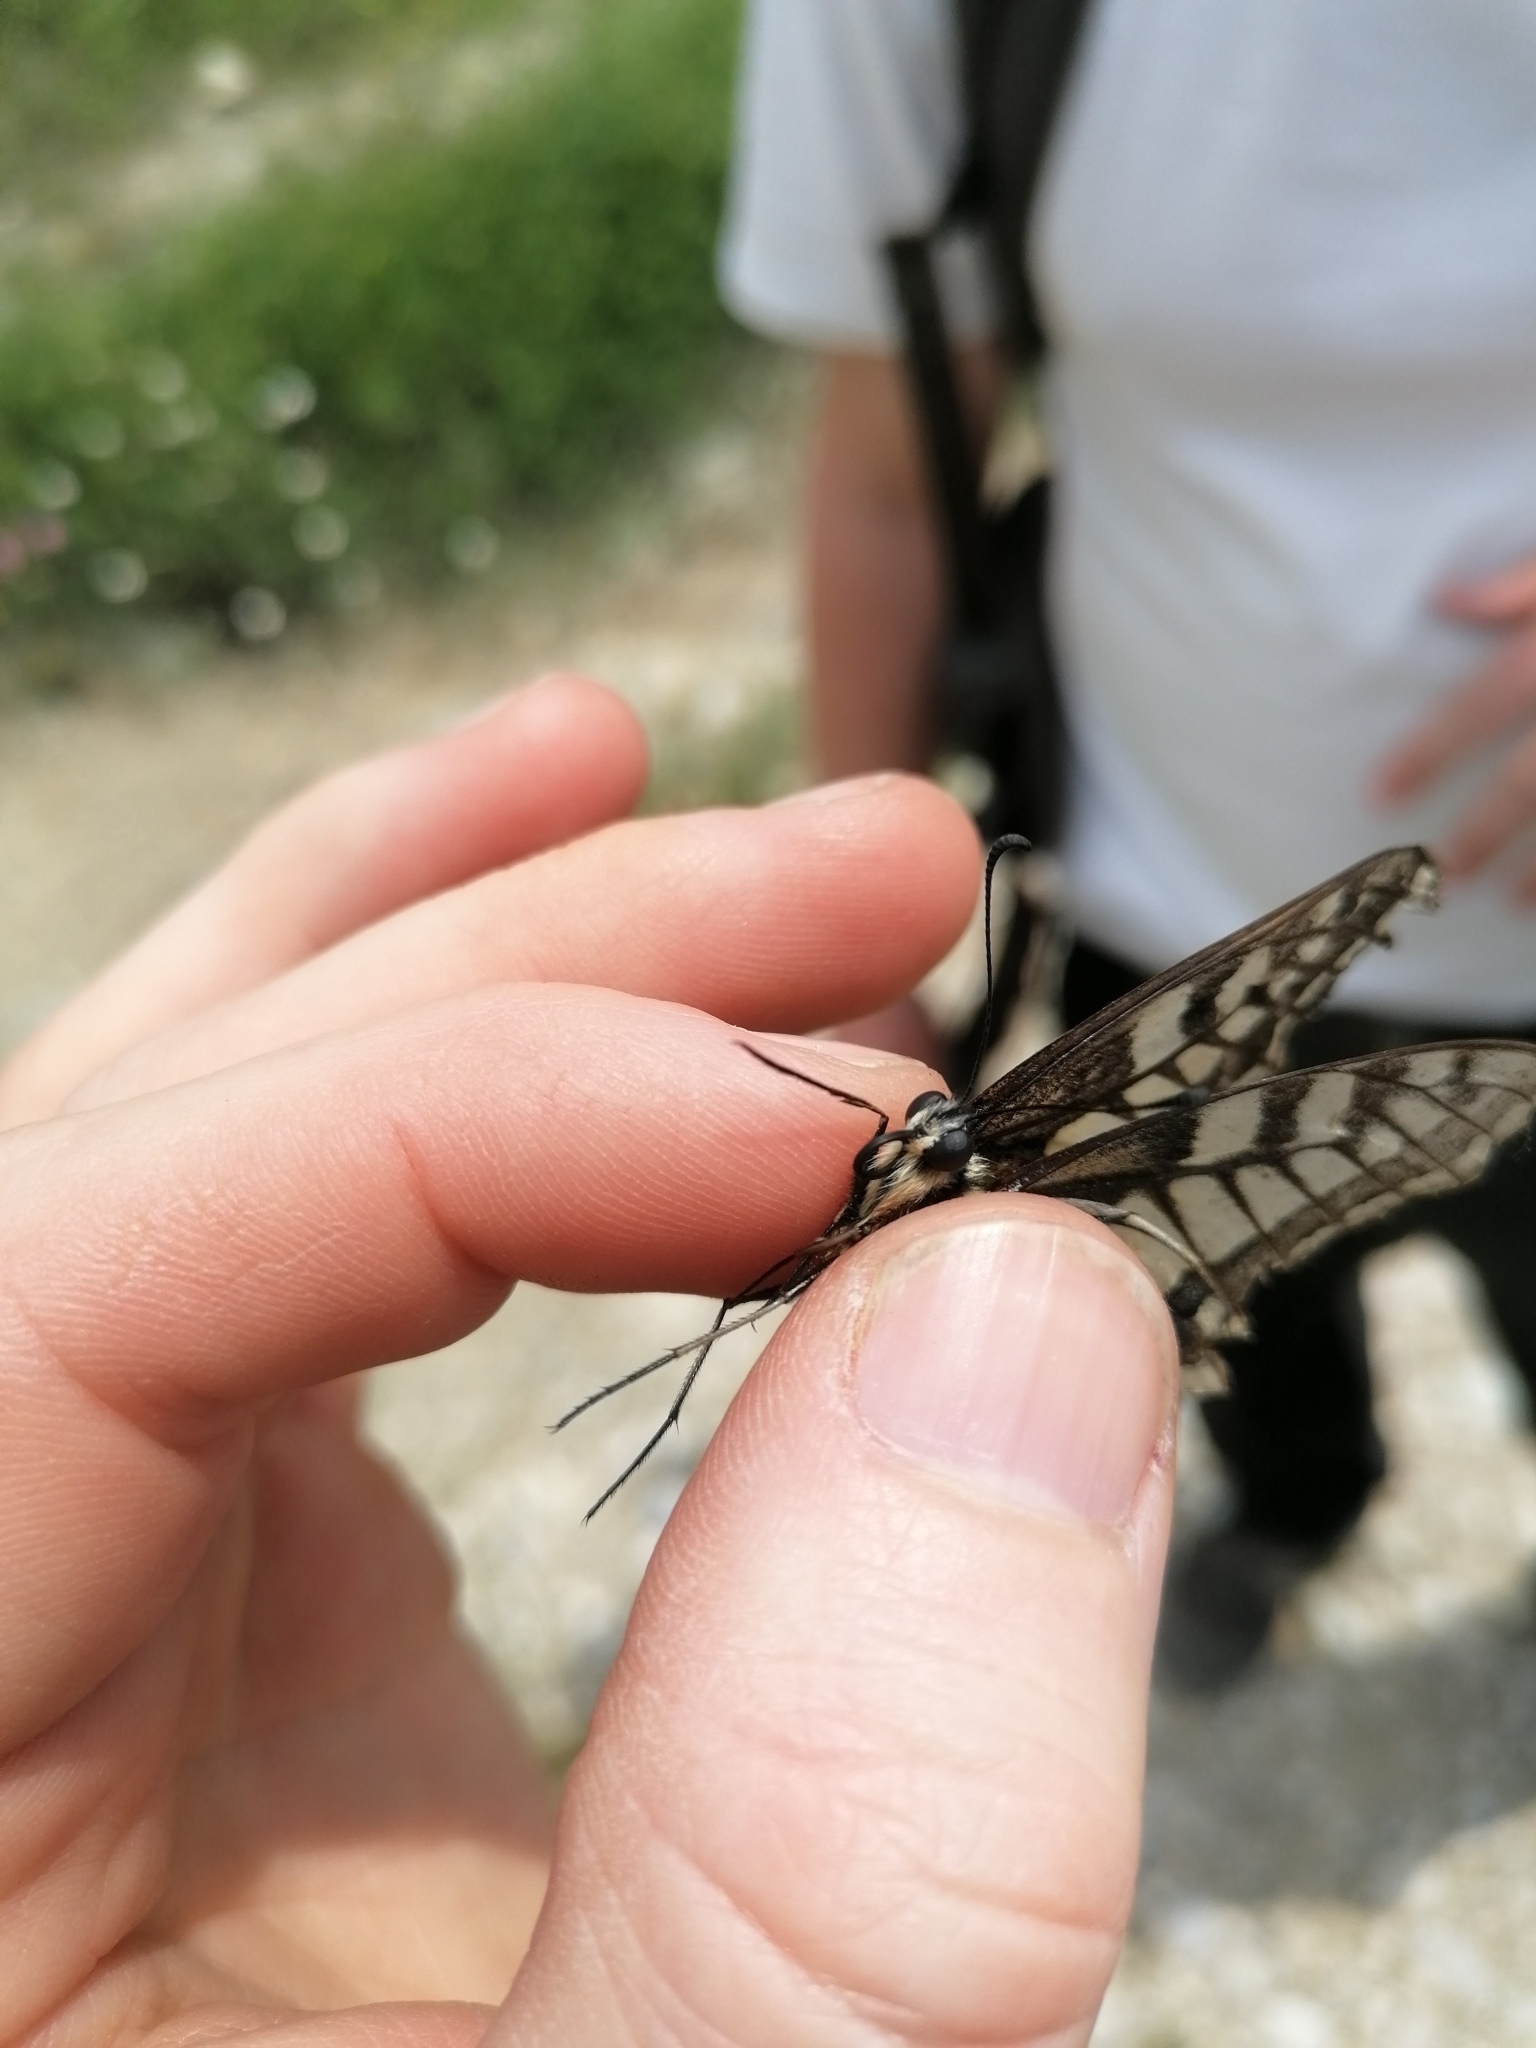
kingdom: Animalia
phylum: Arthropoda
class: Insecta
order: Lepidoptera
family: Papilionidae
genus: Papilio
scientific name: Papilio machaon
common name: Swallowtail
